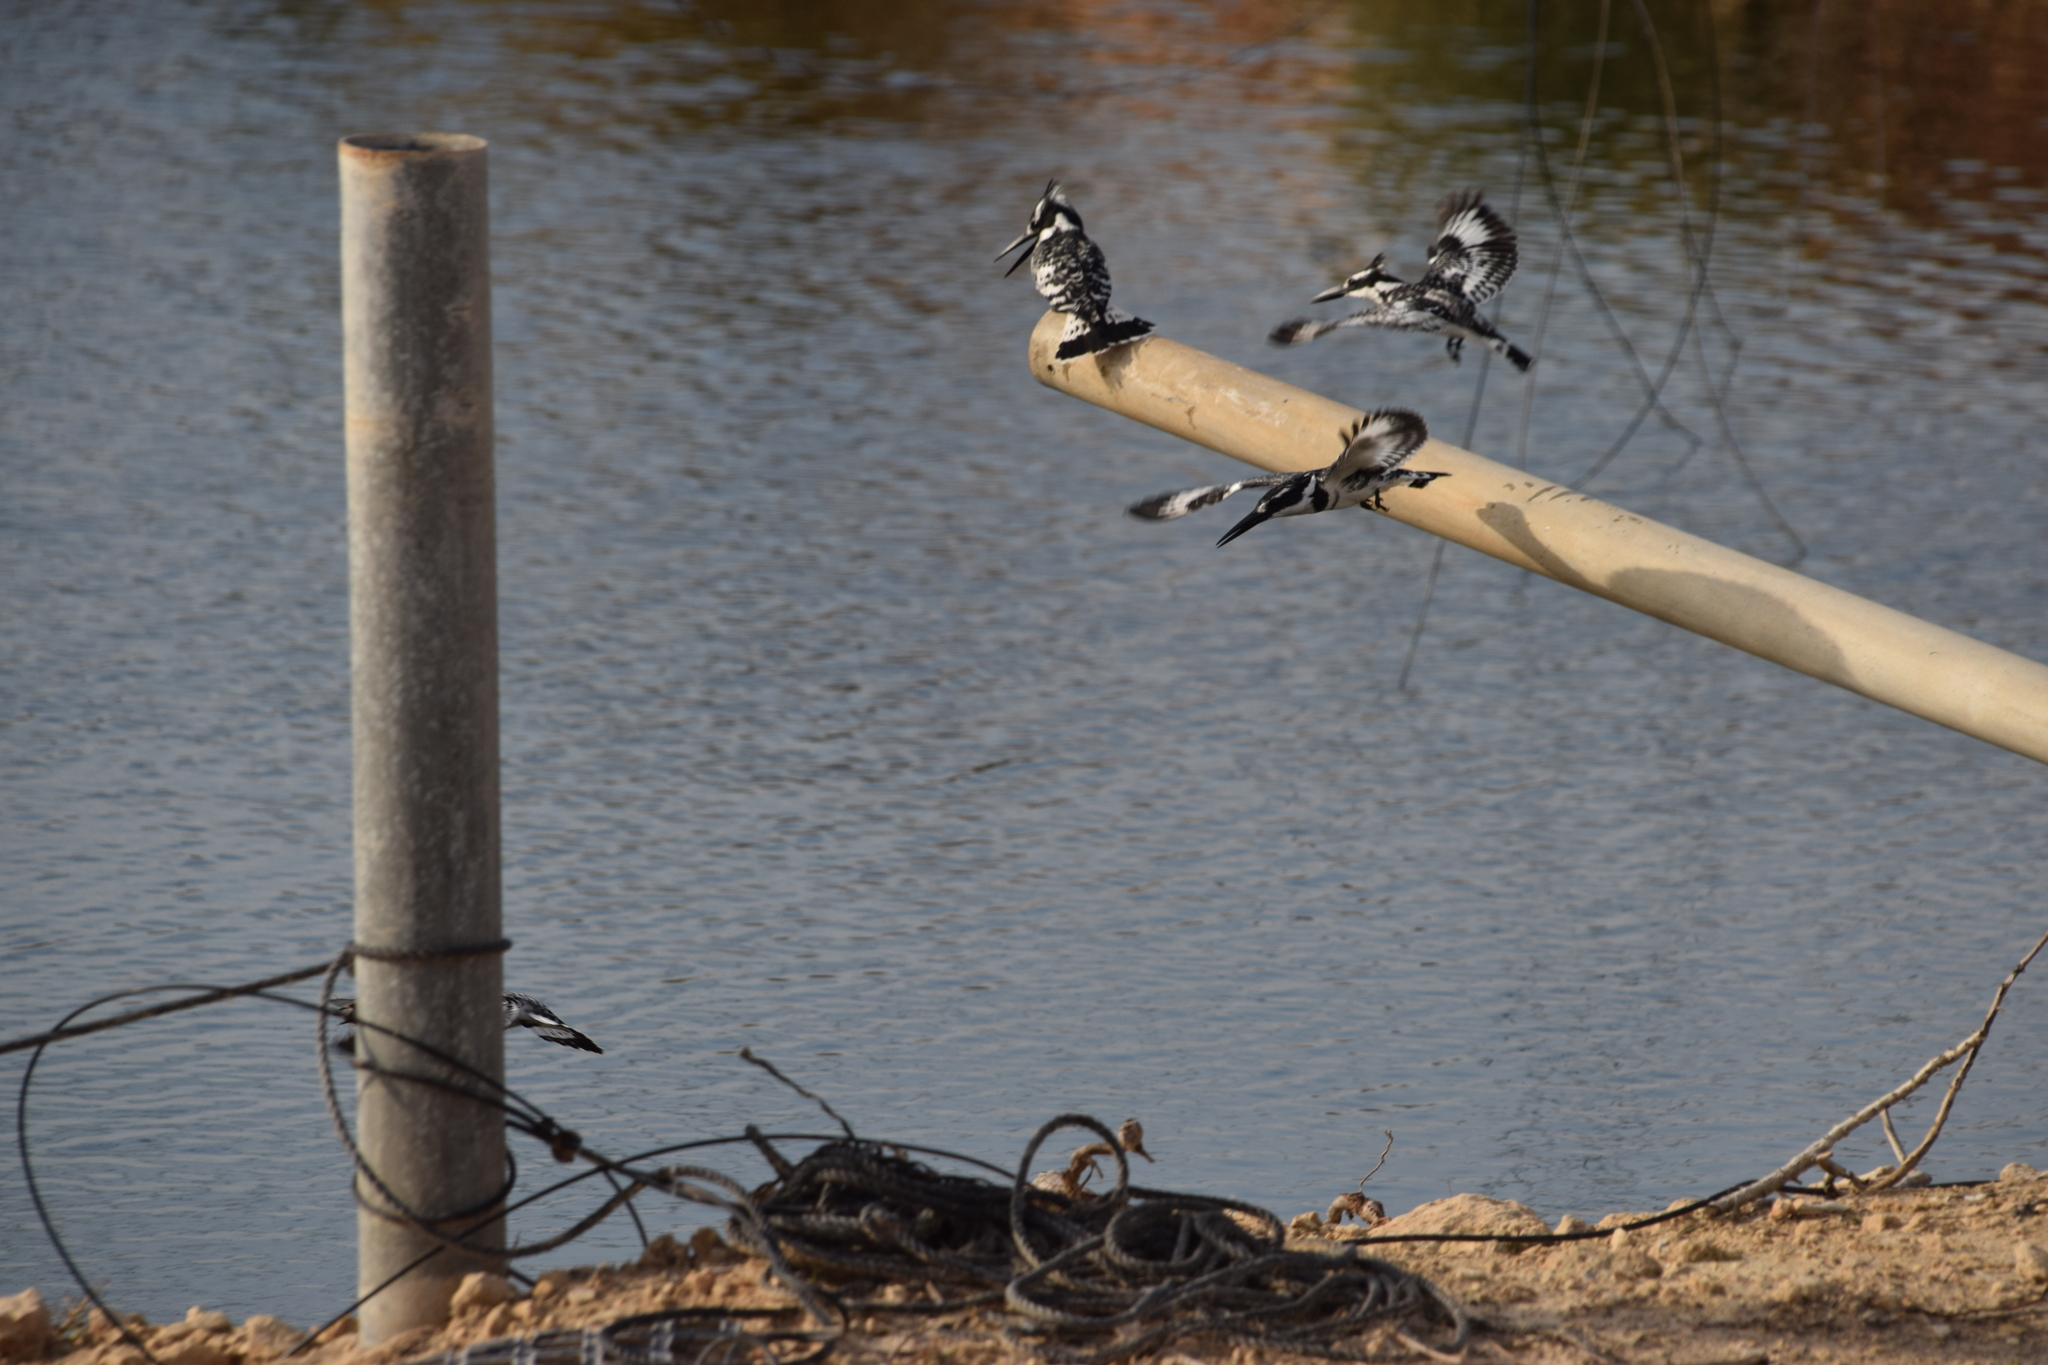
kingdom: Animalia
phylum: Chordata
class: Aves
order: Coraciiformes
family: Alcedinidae
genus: Ceryle
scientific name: Ceryle rudis
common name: Pied kingfisher
